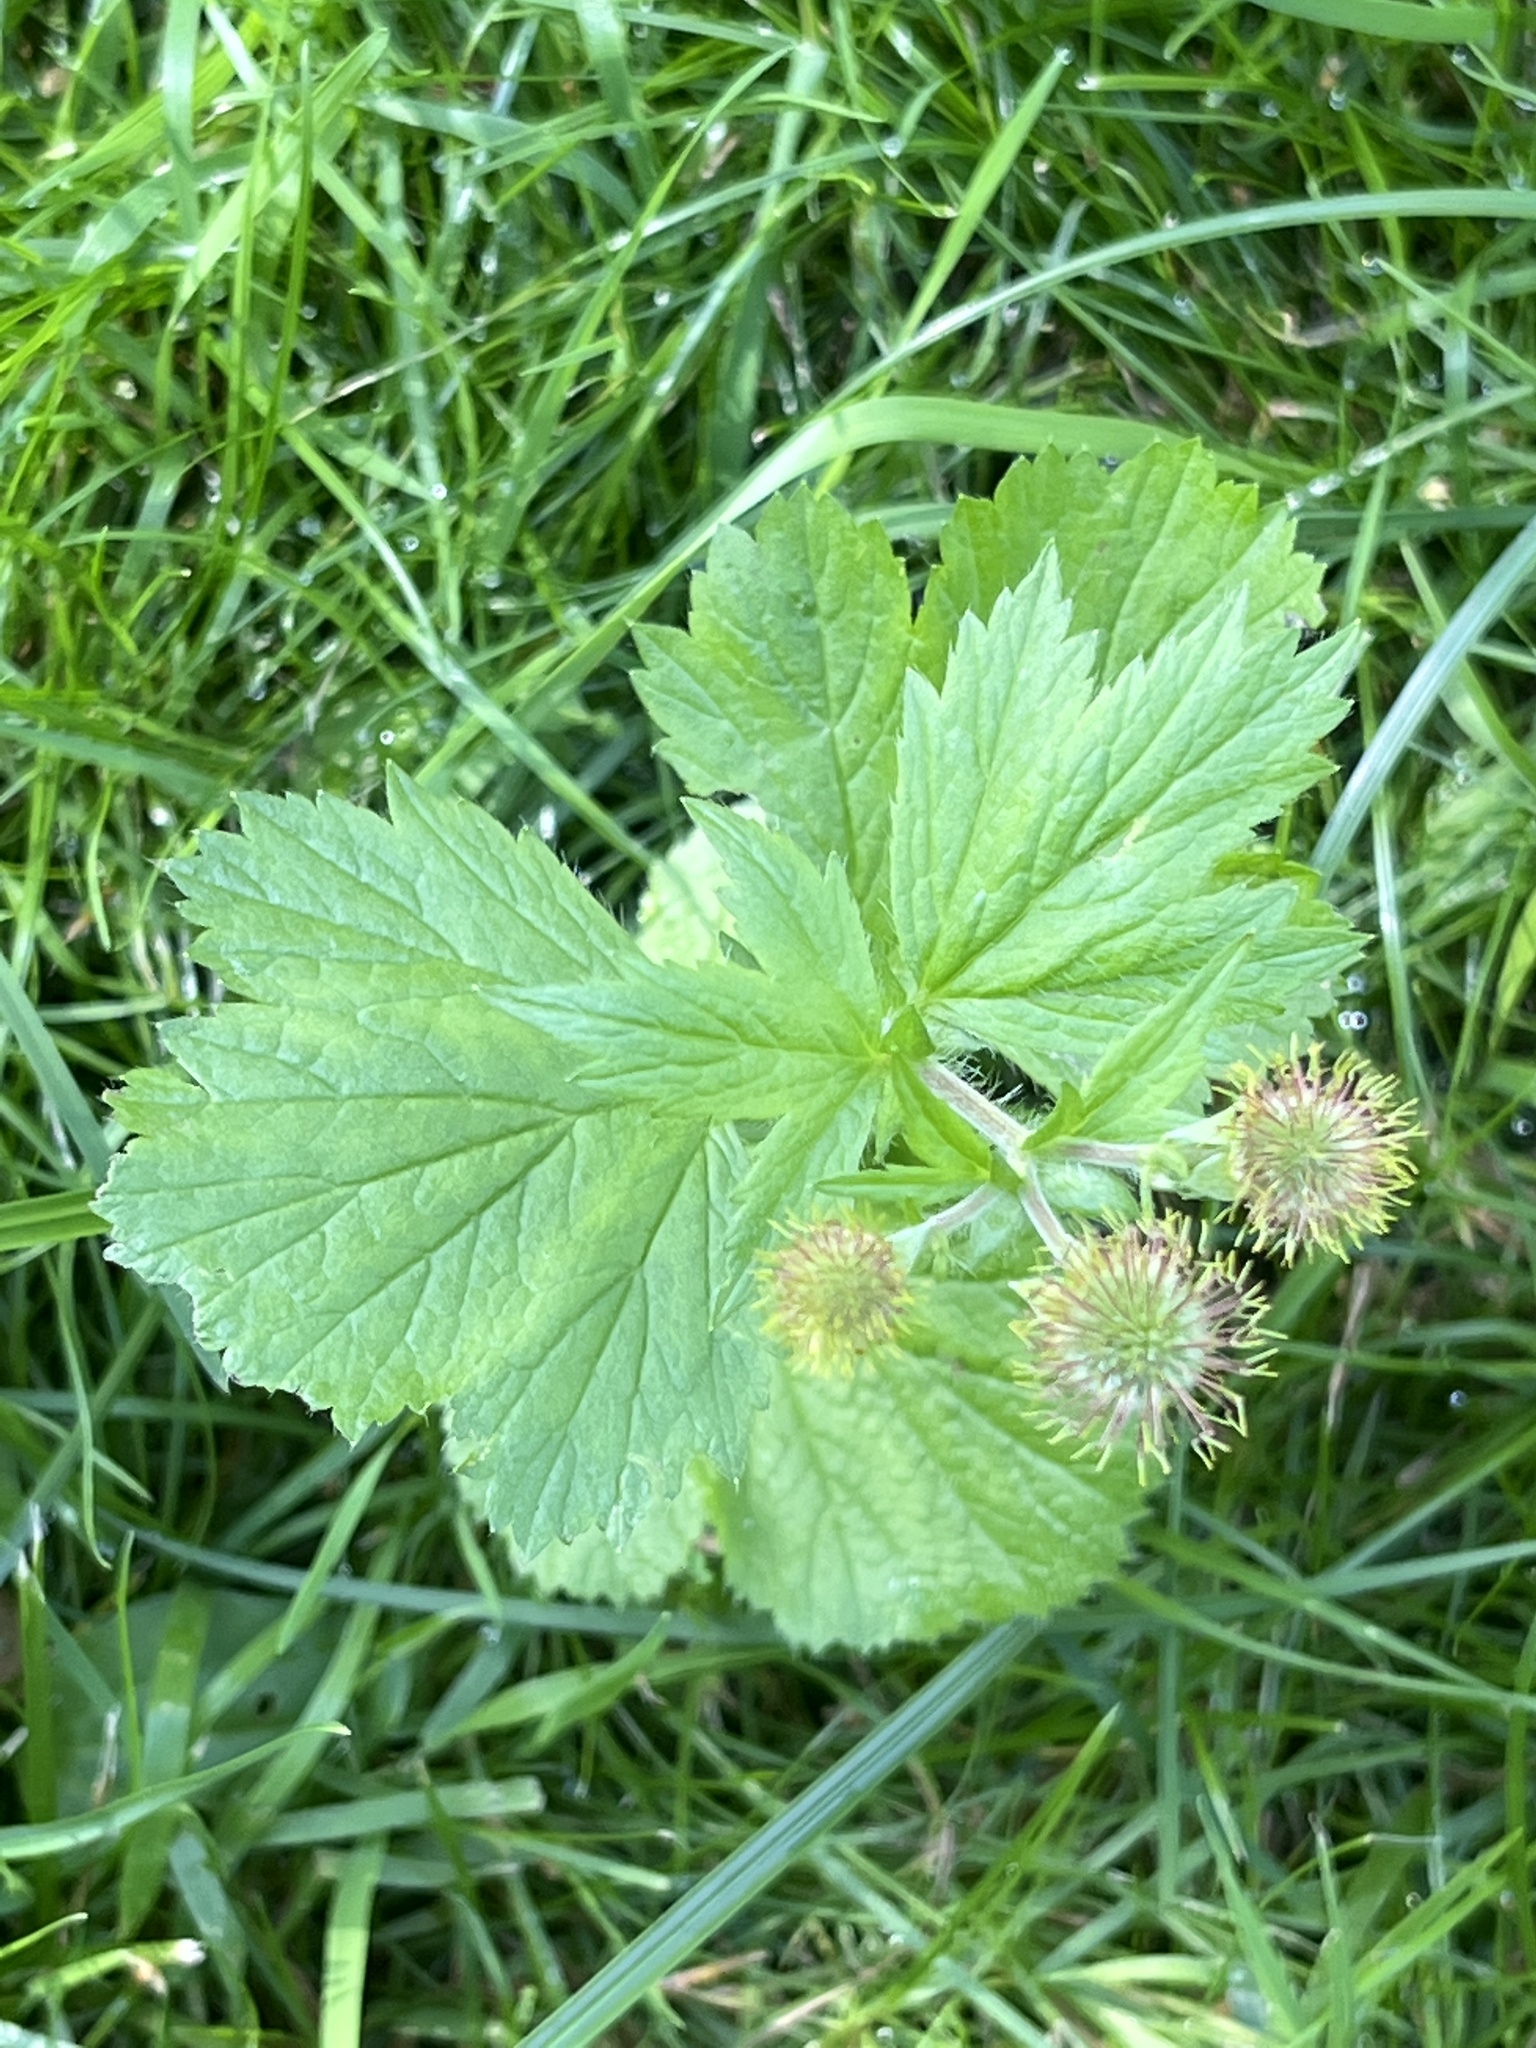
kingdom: Plantae
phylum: Tracheophyta
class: Magnoliopsida
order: Rosales
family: Rosaceae
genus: Geum
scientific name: Geum macrophyllum
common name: Large-leaved avens
